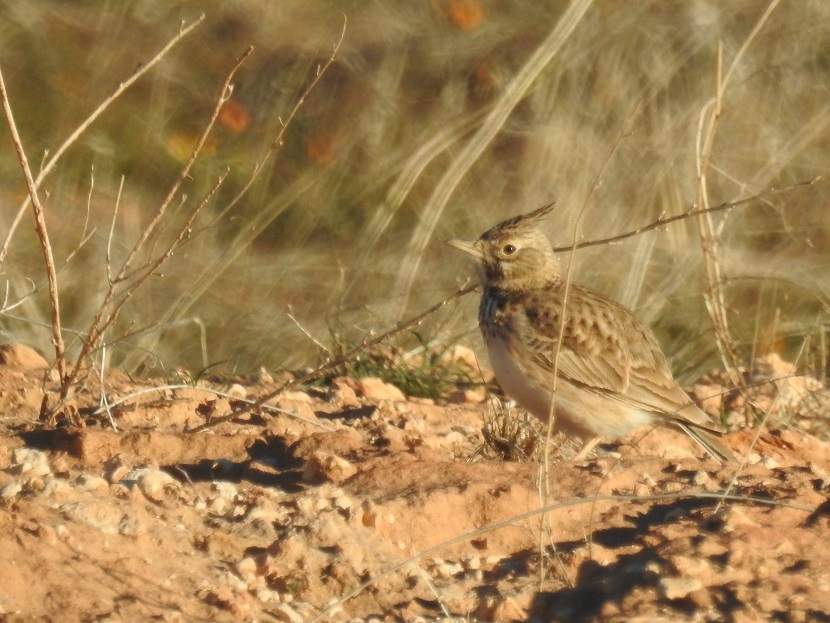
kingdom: Animalia
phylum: Chordata
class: Aves
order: Passeriformes
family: Alaudidae
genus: Galerida
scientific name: Galerida theklae
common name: Thekla lark
